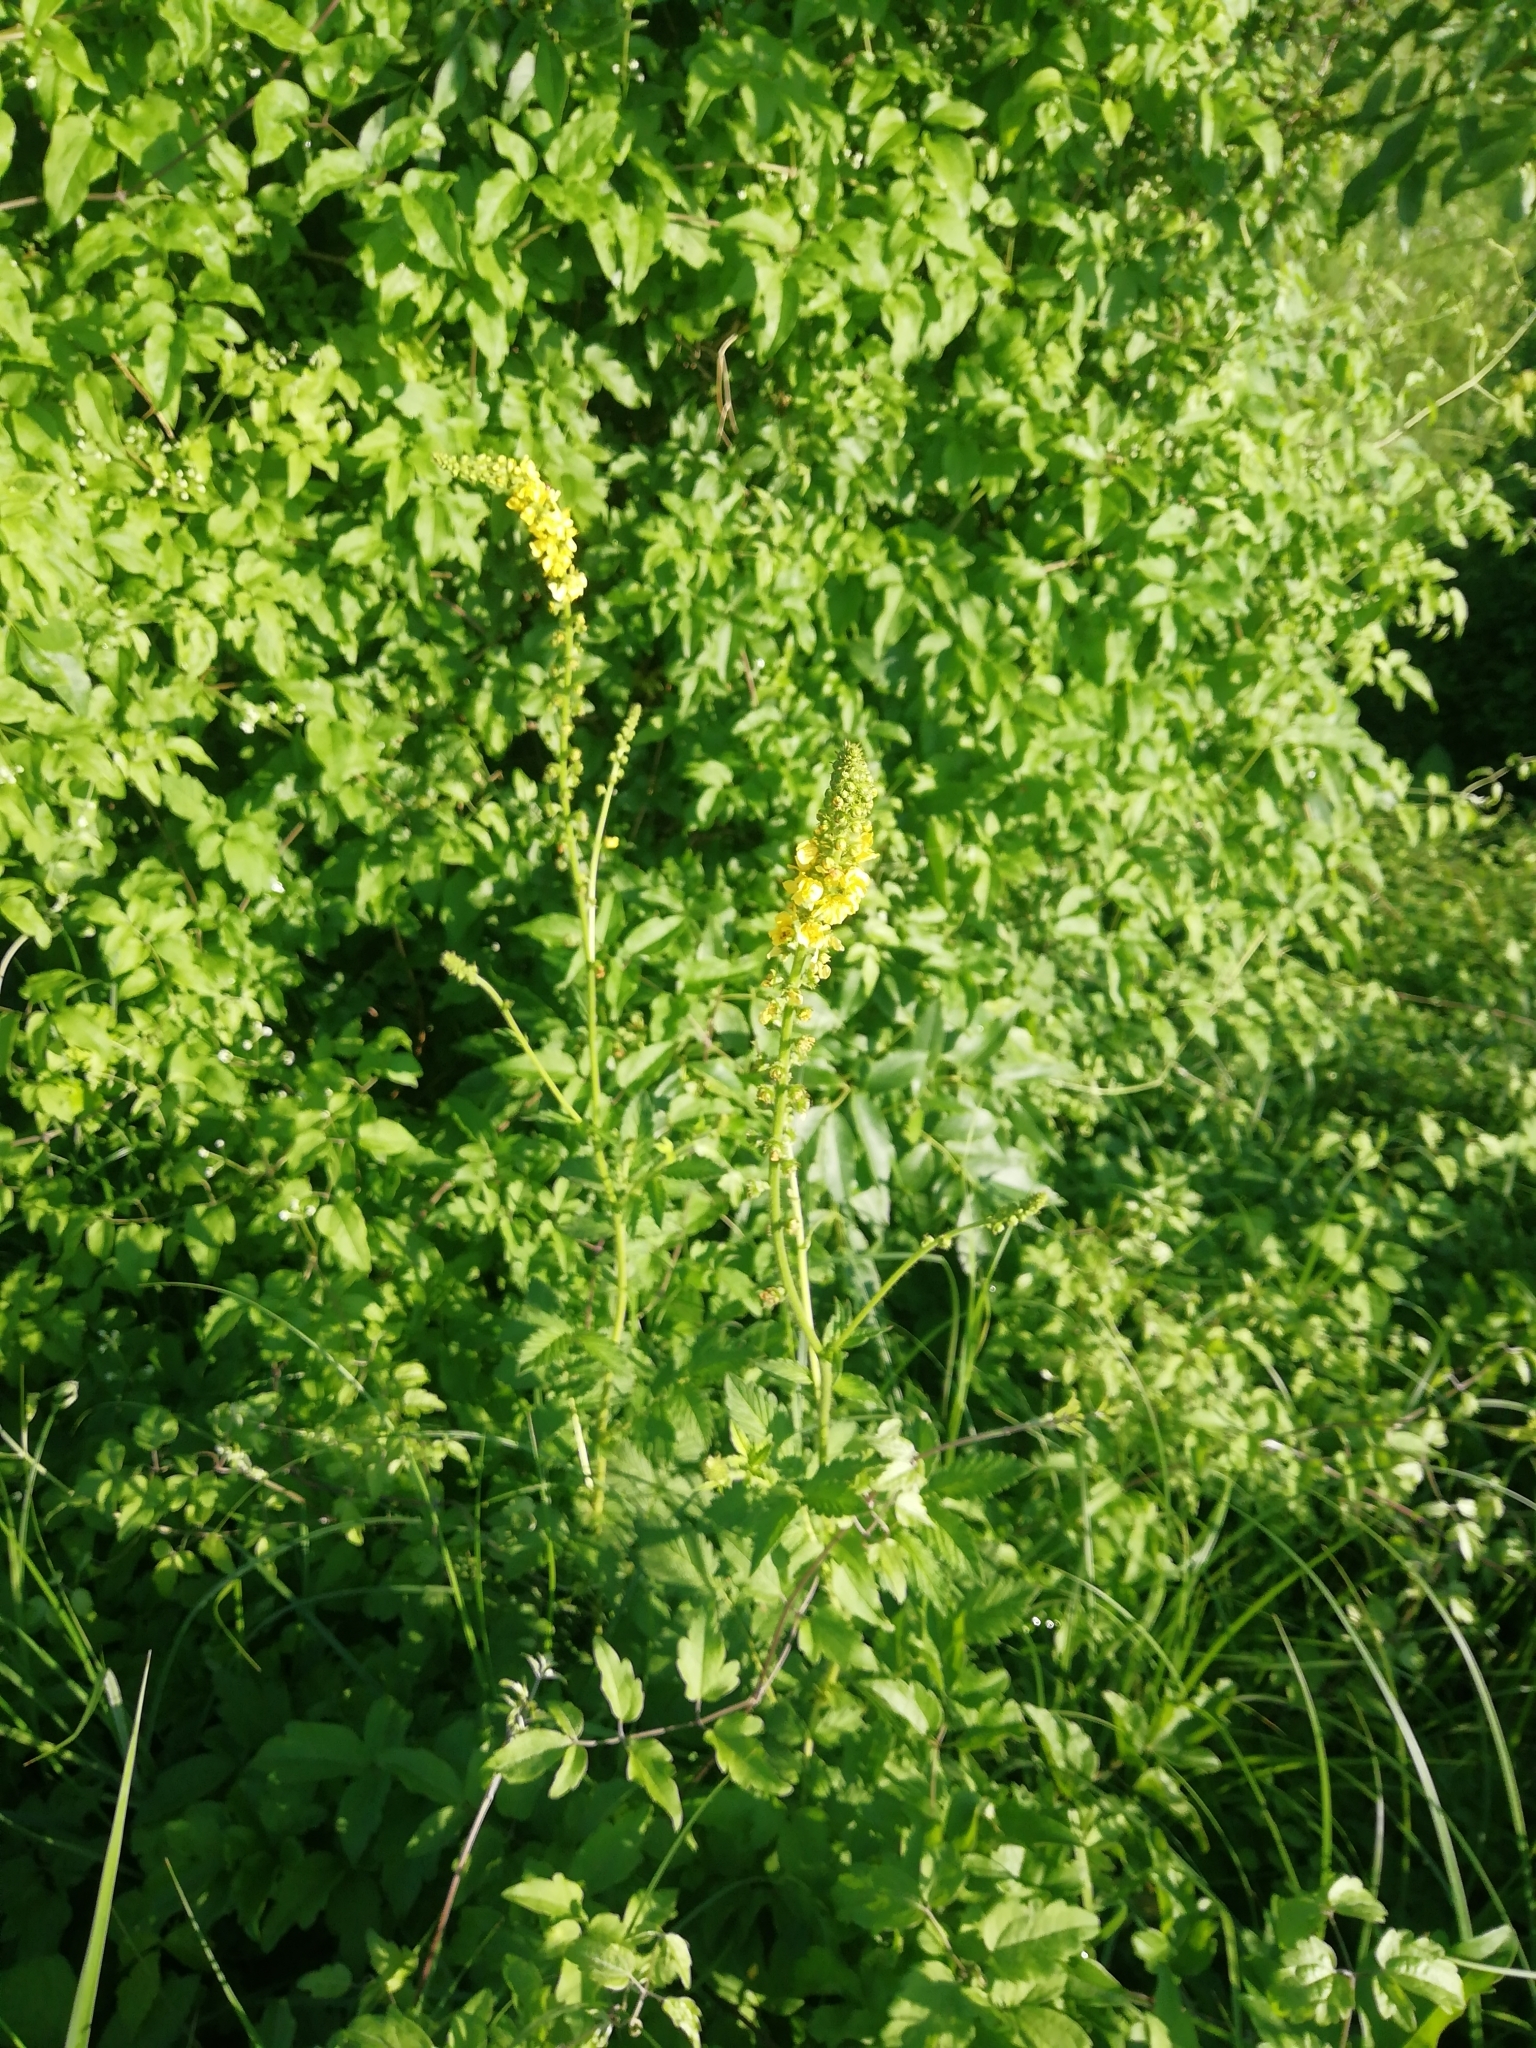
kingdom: Plantae
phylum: Tracheophyta
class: Magnoliopsida
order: Rosales
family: Rosaceae
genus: Agrimonia
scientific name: Agrimonia eupatoria
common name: Agrimony
